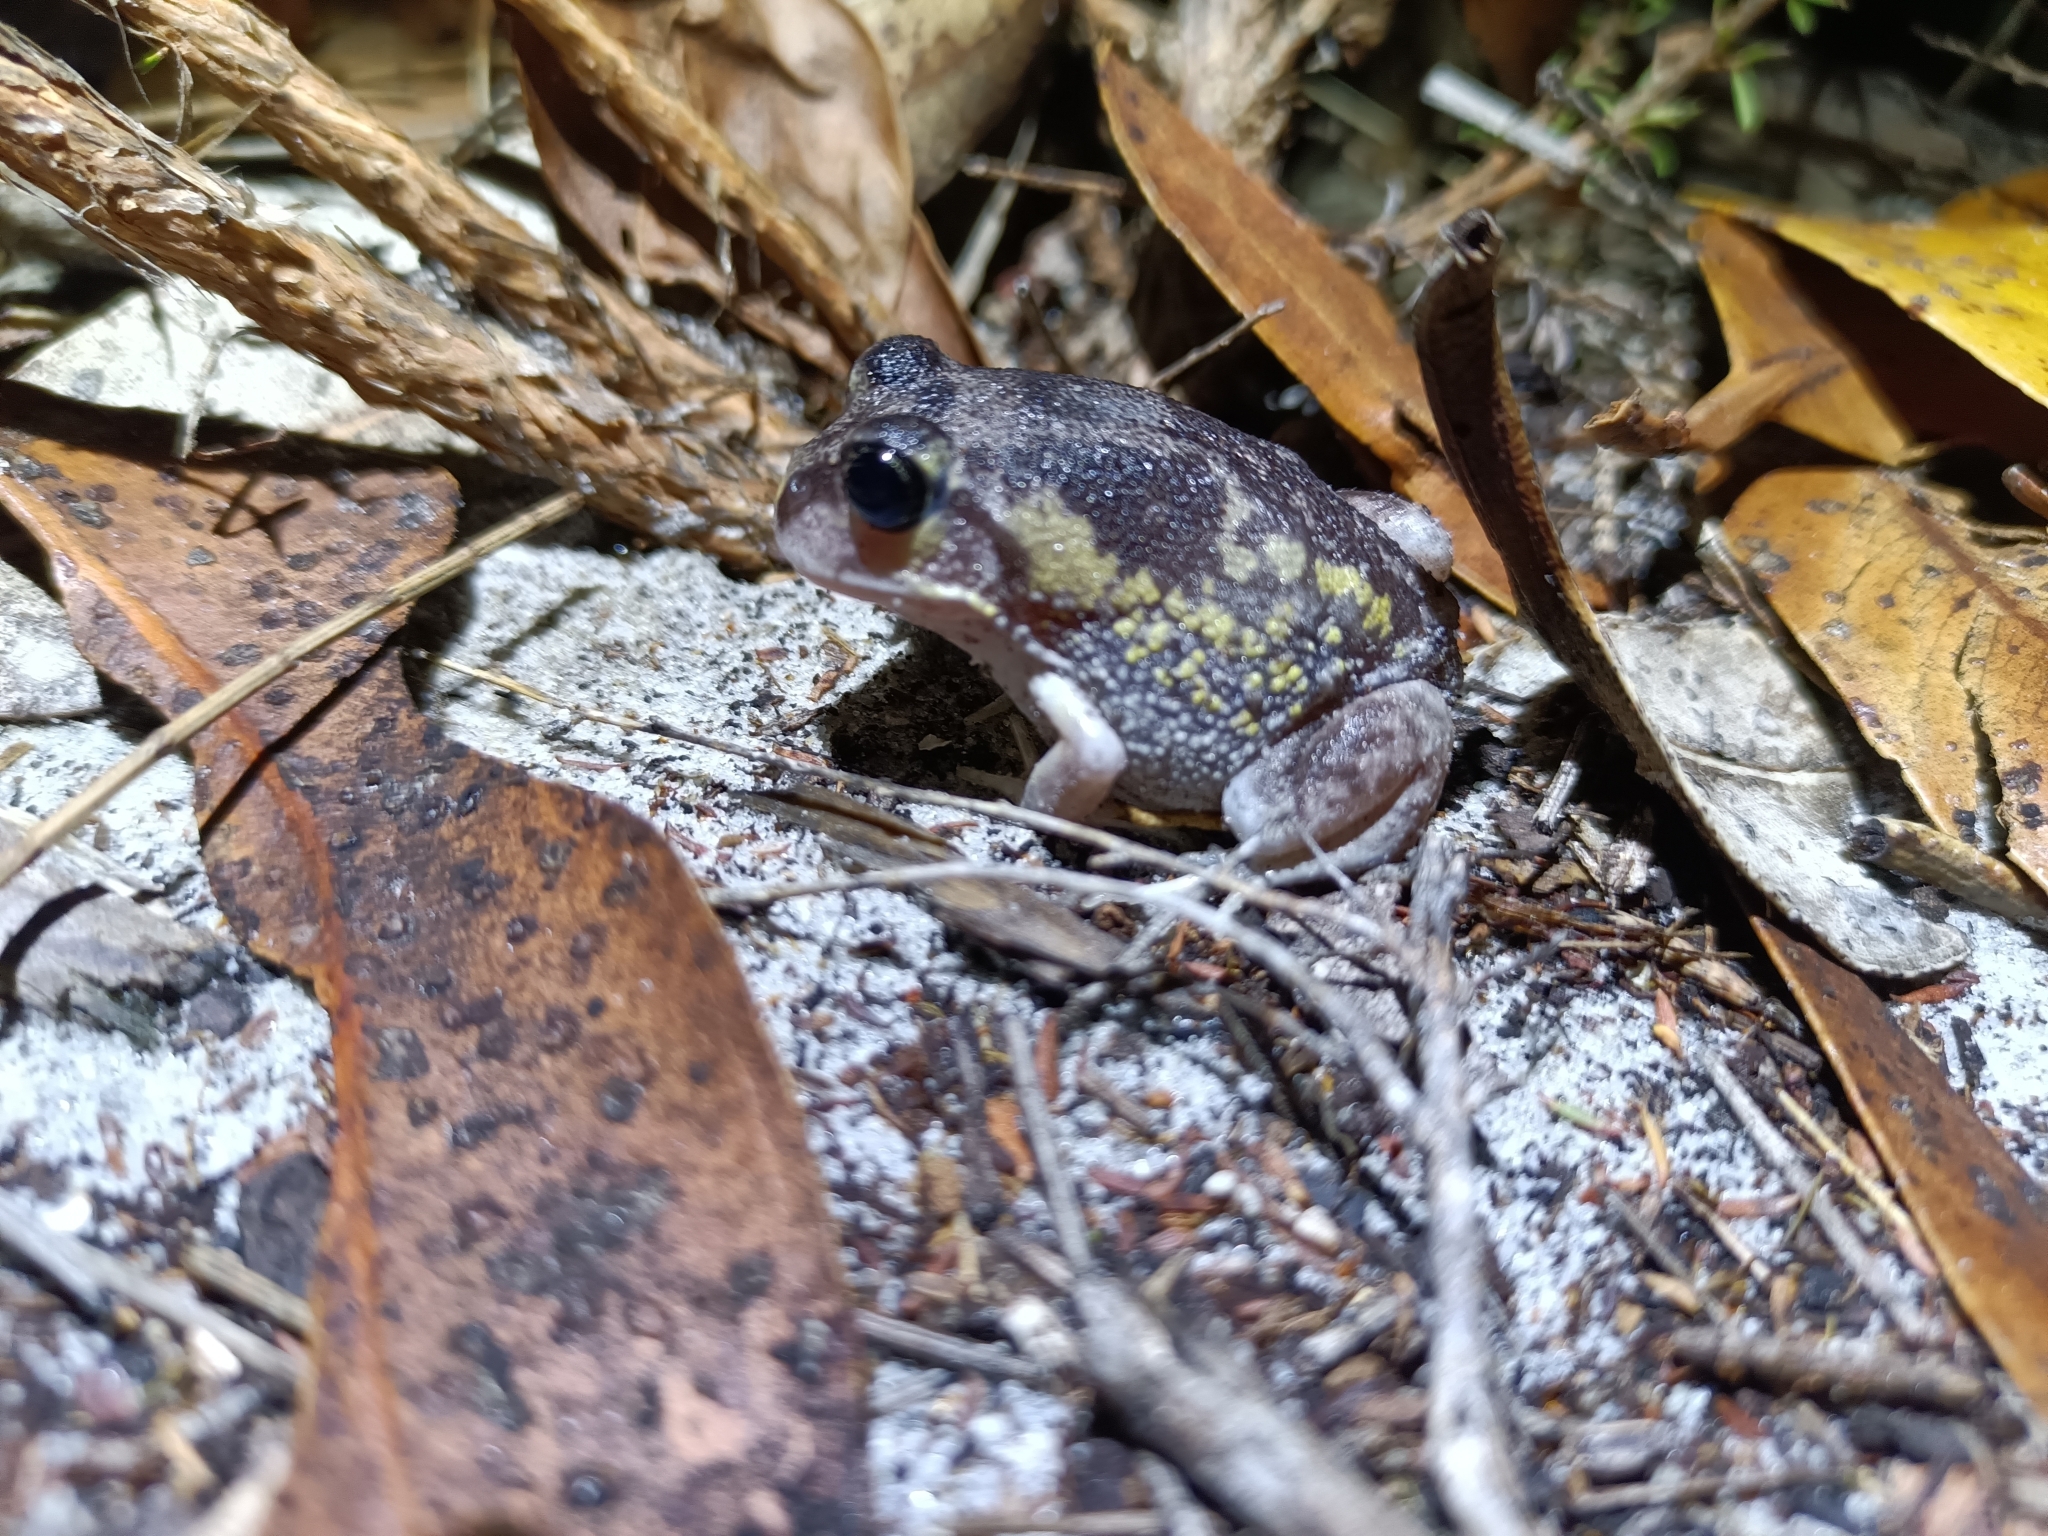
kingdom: Animalia
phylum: Chordata
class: Amphibia
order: Anura
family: Limnodynastidae
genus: Heleioporus
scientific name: Heleioporus eyrei
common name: Moaning frog
